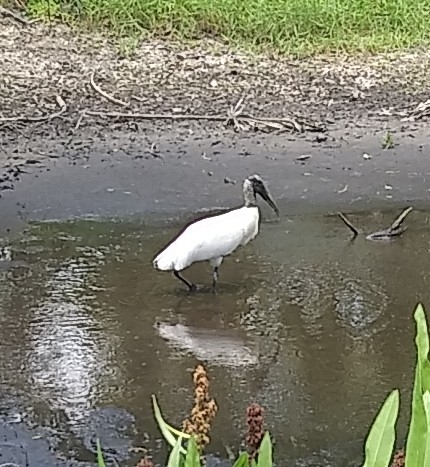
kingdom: Animalia
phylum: Chordata
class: Aves
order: Ciconiiformes
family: Ciconiidae
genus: Mycteria
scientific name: Mycteria americana
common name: Wood stork
